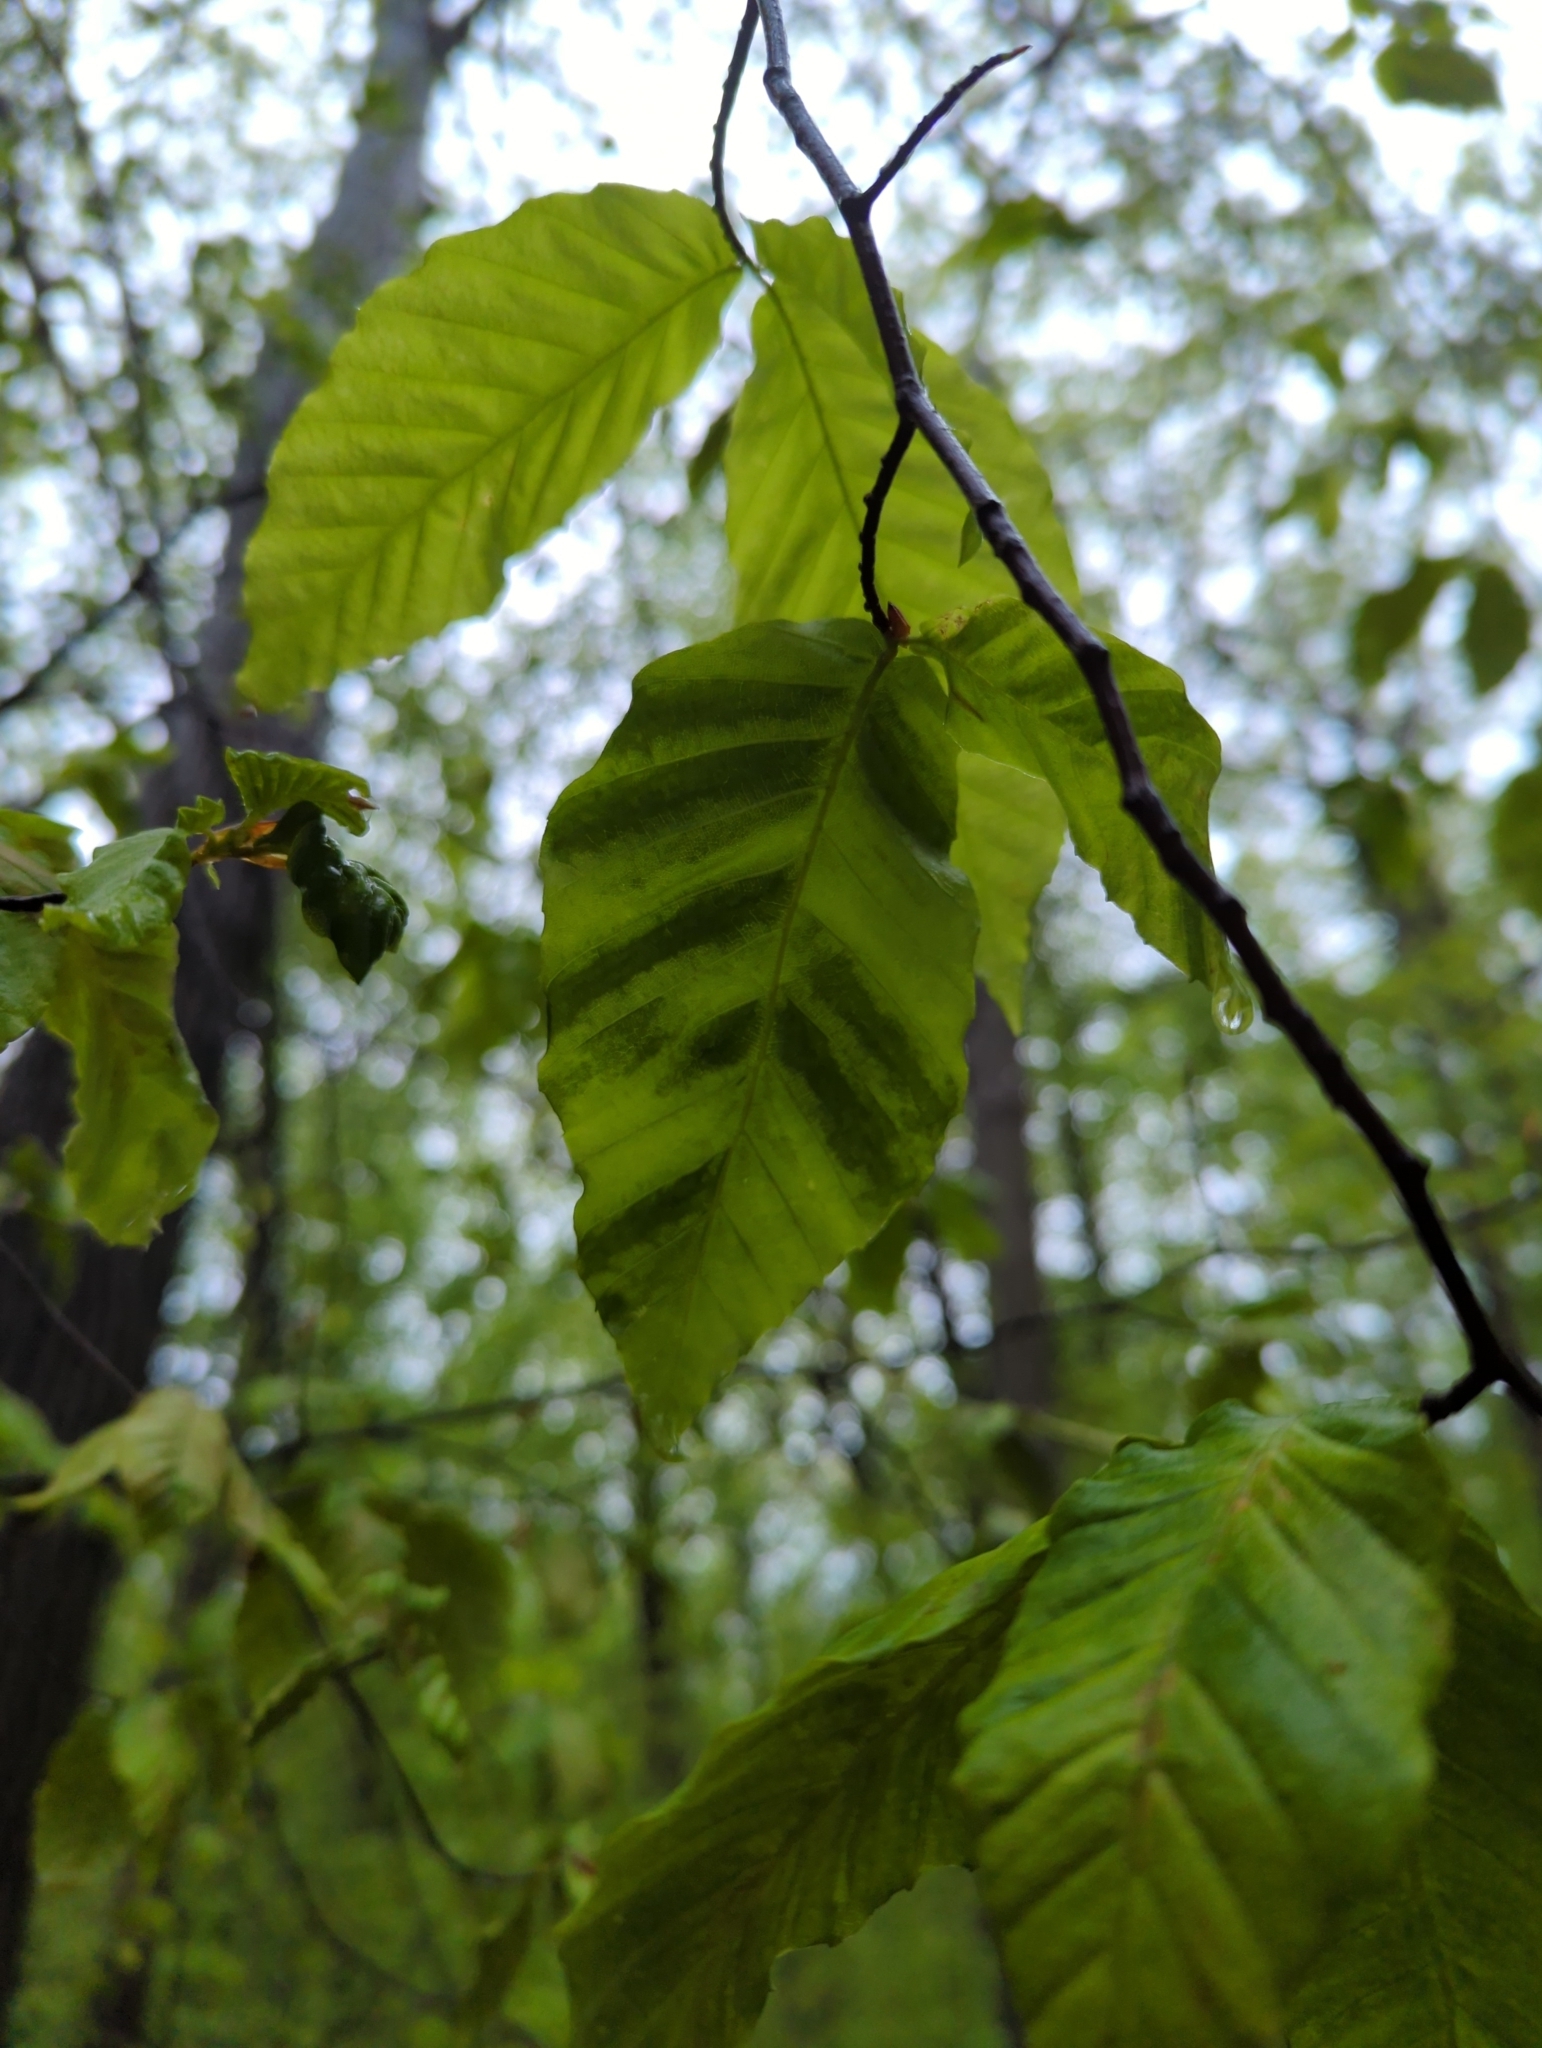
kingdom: Animalia
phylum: Nematoda
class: Chromadorea
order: Rhabditida
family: Anguinidae
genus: Litylenchus
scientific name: Litylenchus crenatae
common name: Beech leaf disease
